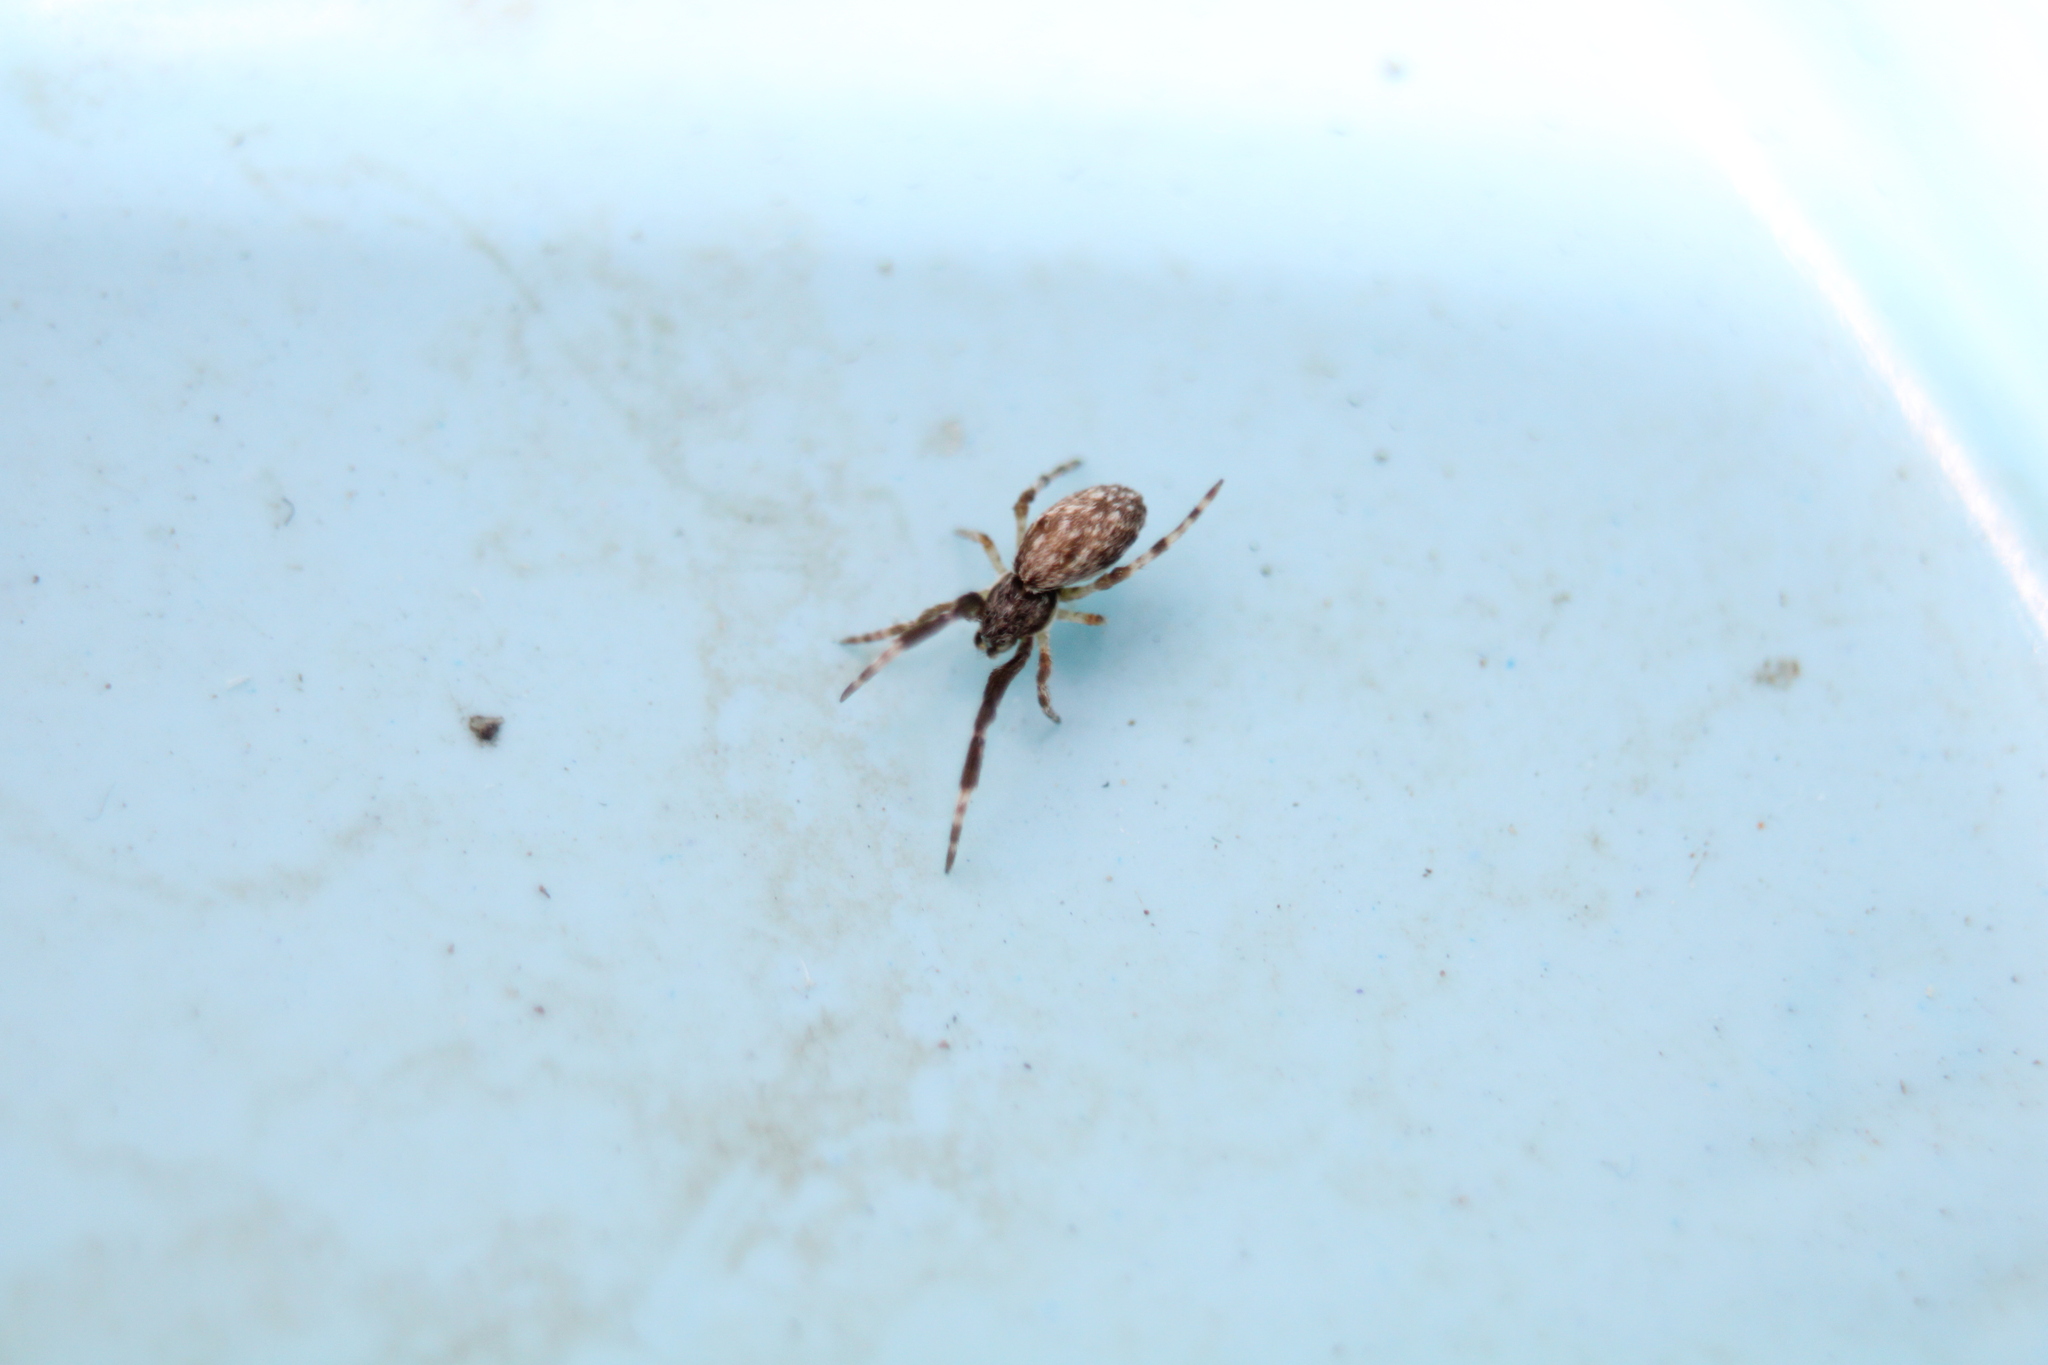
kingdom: Animalia
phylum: Arthropoda
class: Arachnida
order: Araneae
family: Uloboridae
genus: Uloborus
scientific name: Uloborus glomosus
